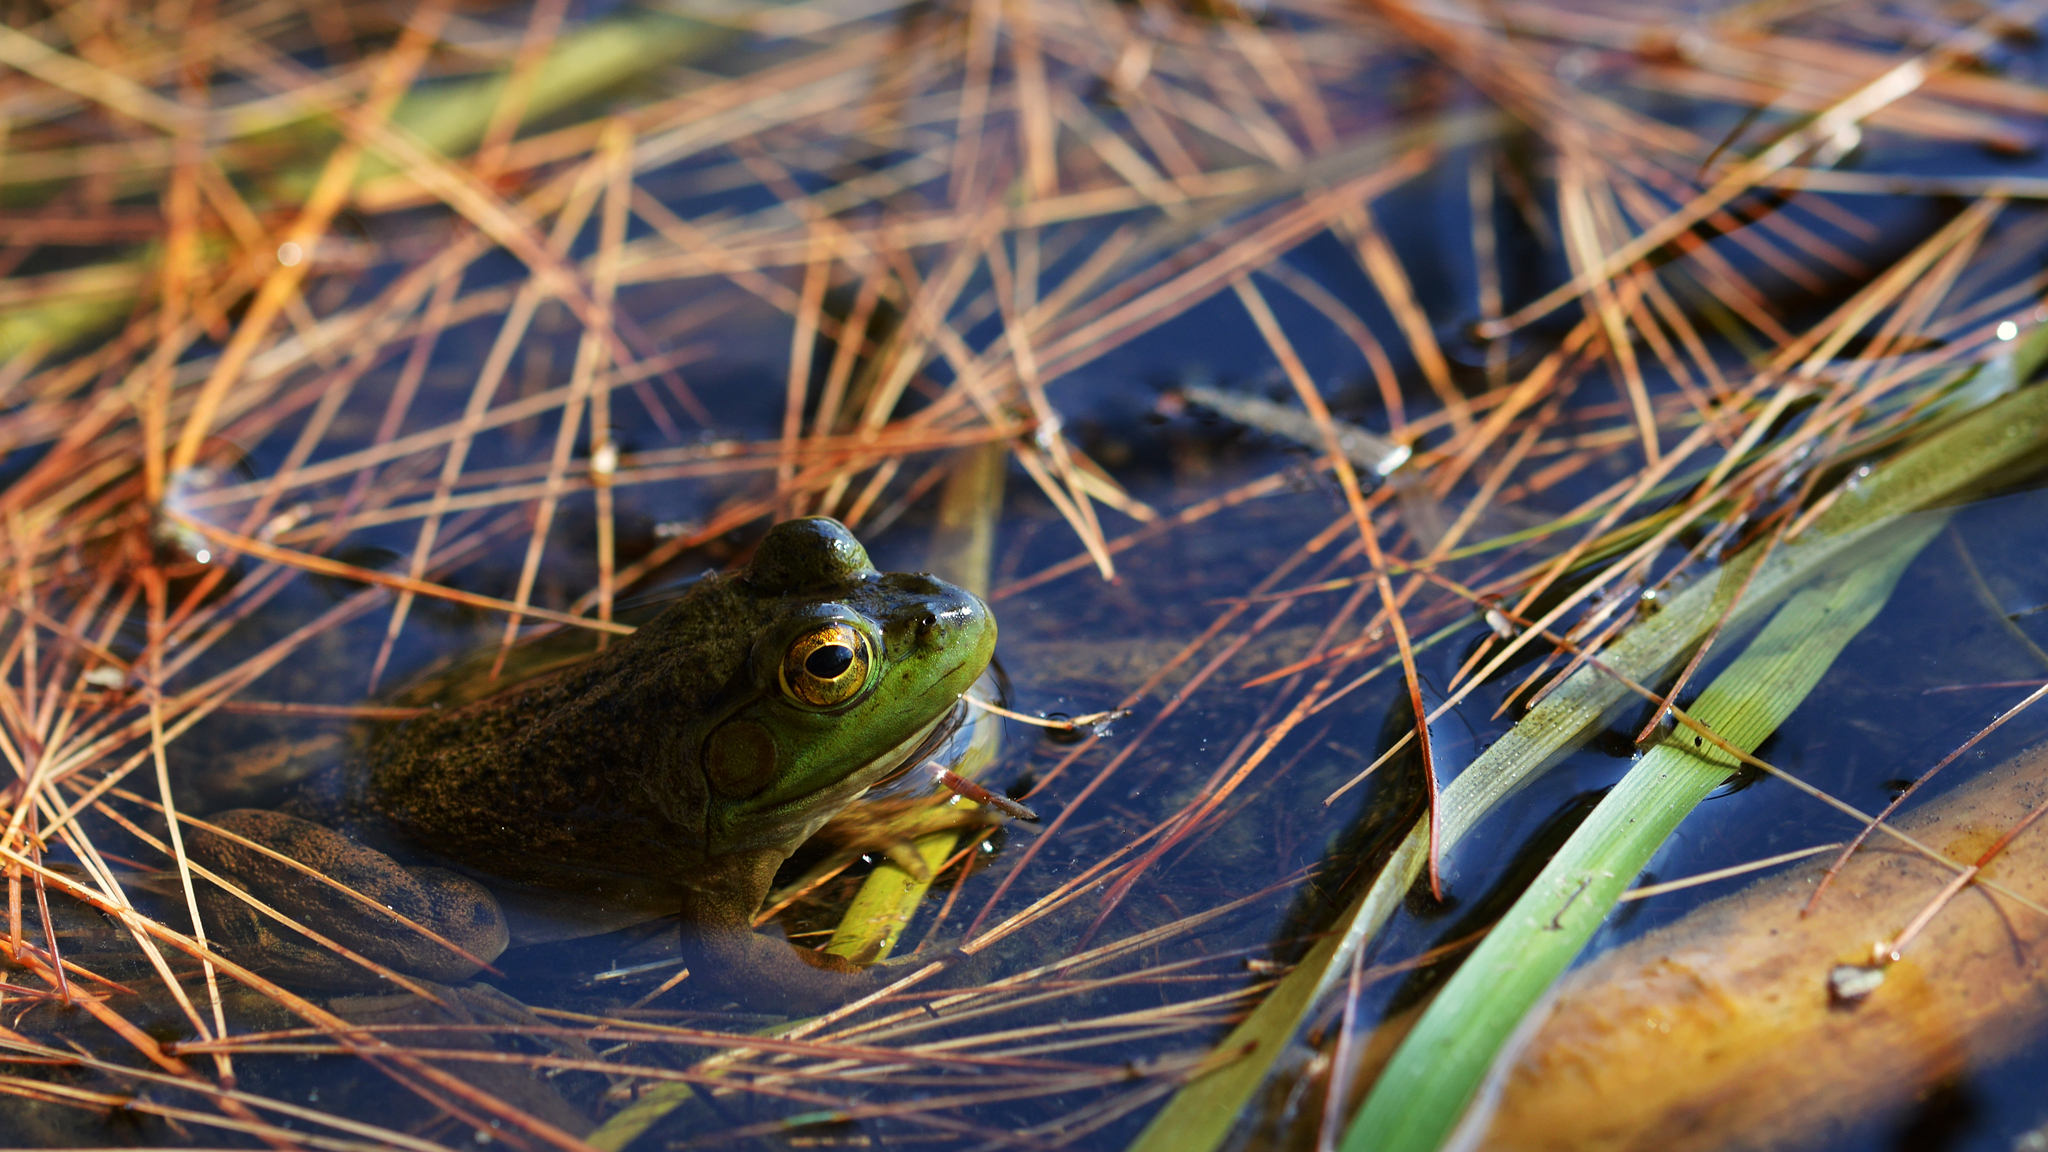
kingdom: Animalia
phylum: Chordata
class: Amphibia
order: Anura
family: Ranidae
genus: Lithobates
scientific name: Lithobates catesbeianus
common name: American bullfrog
